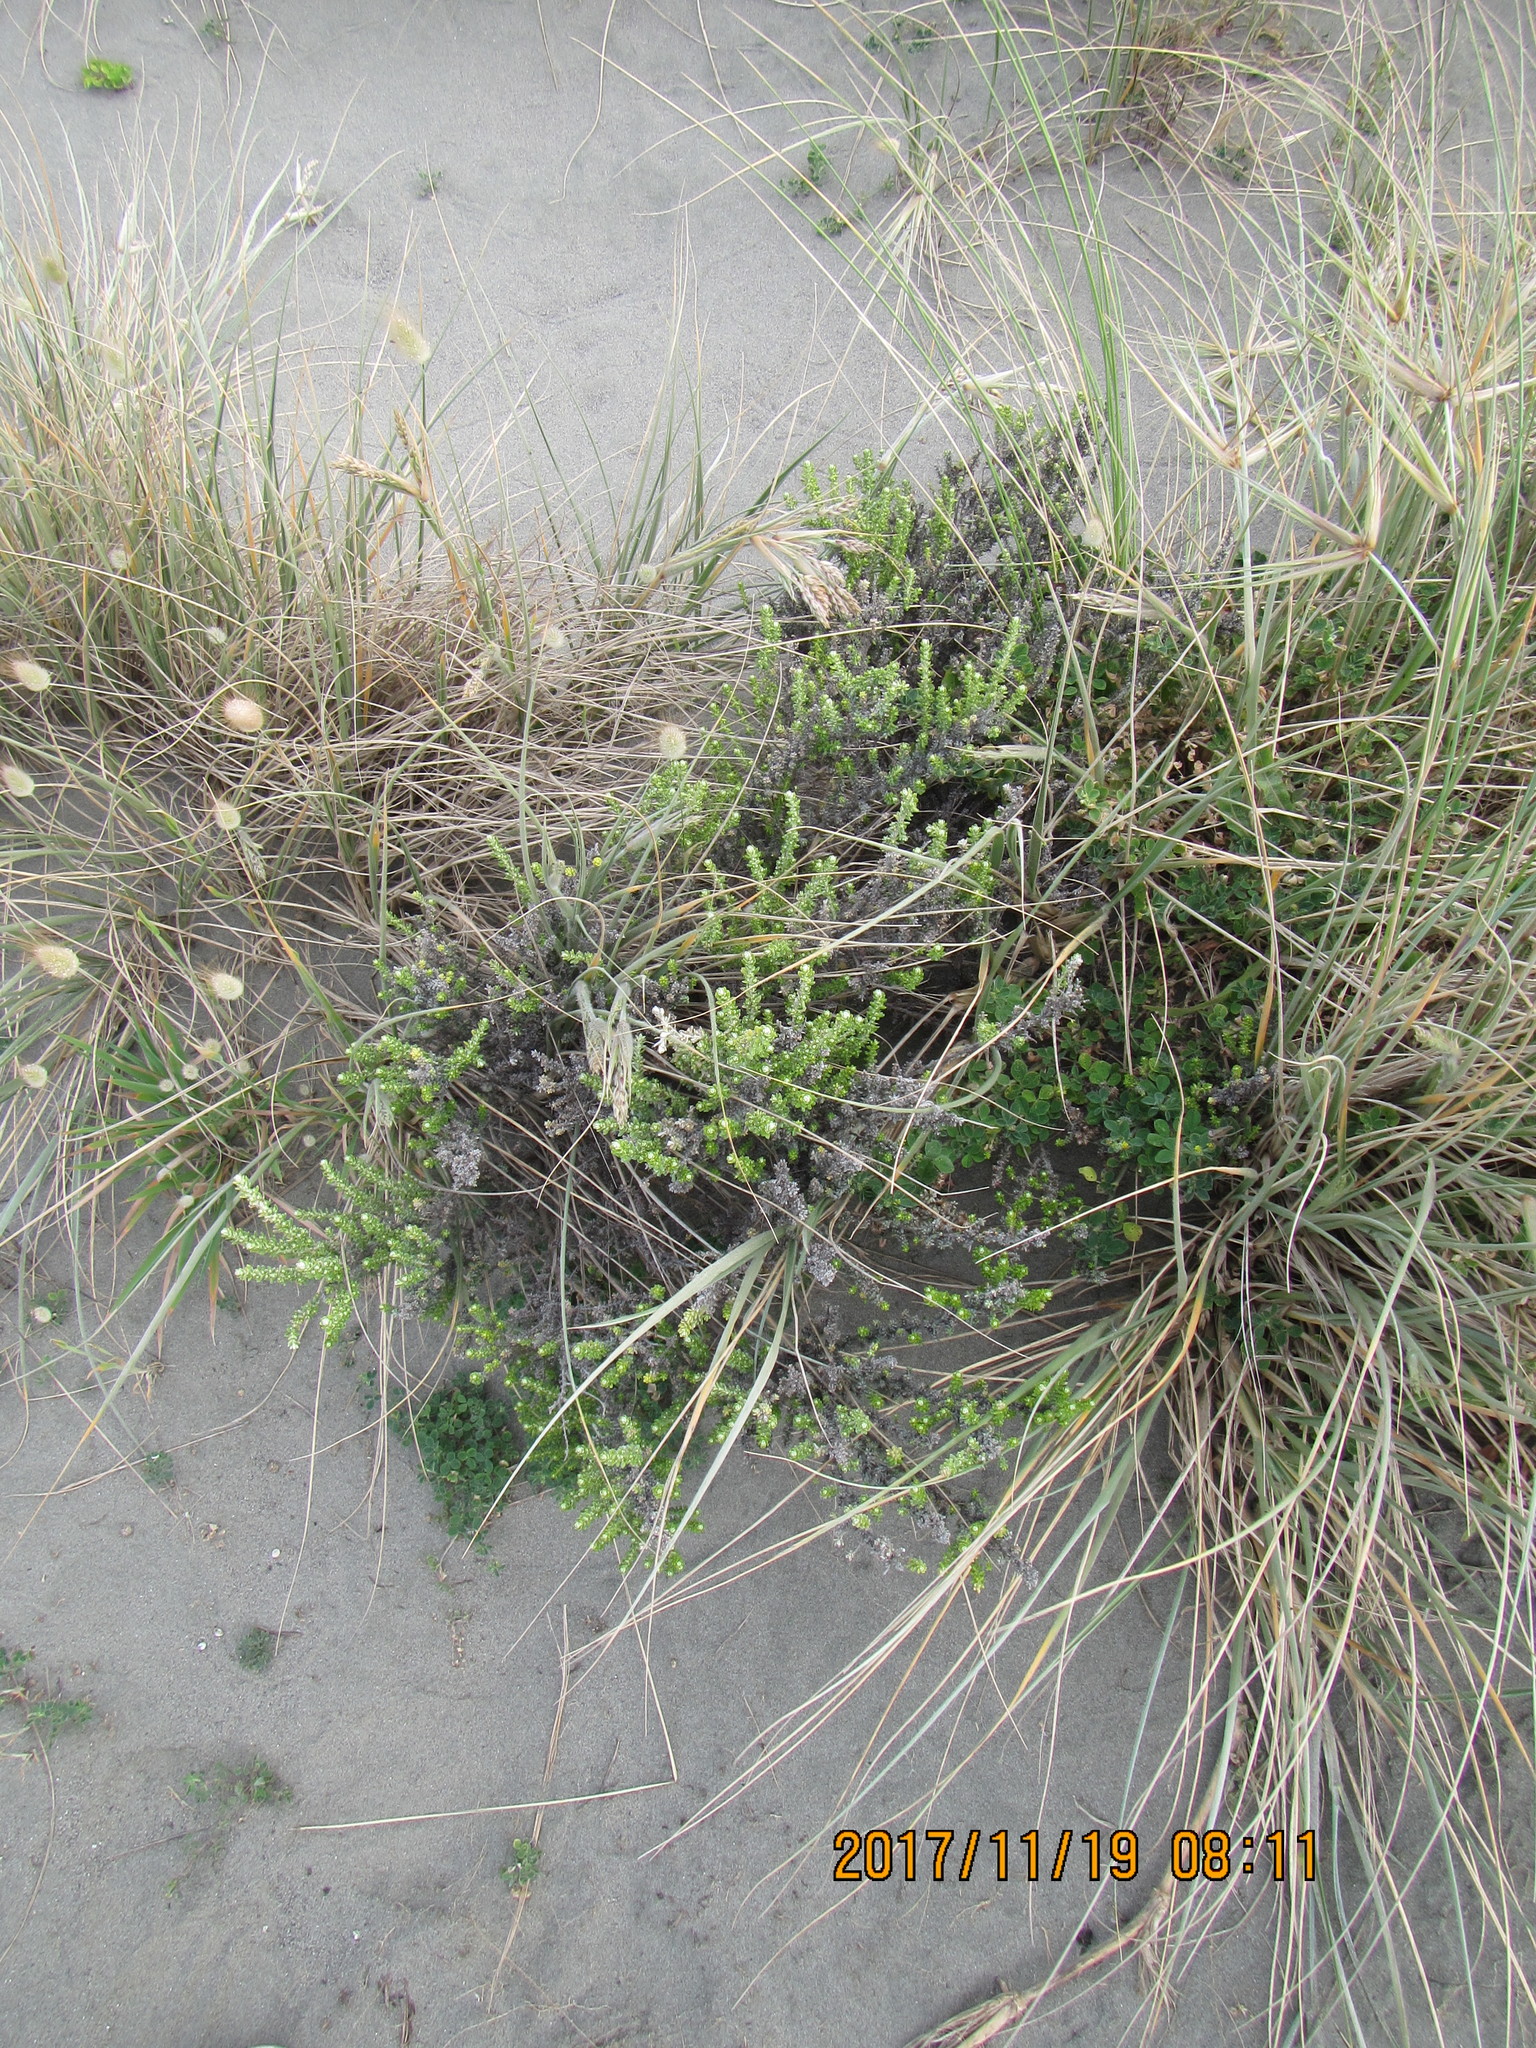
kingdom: Plantae
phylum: Tracheophyta
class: Magnoliopsida
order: Asterales
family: Asteraceae
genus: Ozothamnus
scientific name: Ozothamnus leptophyllus
